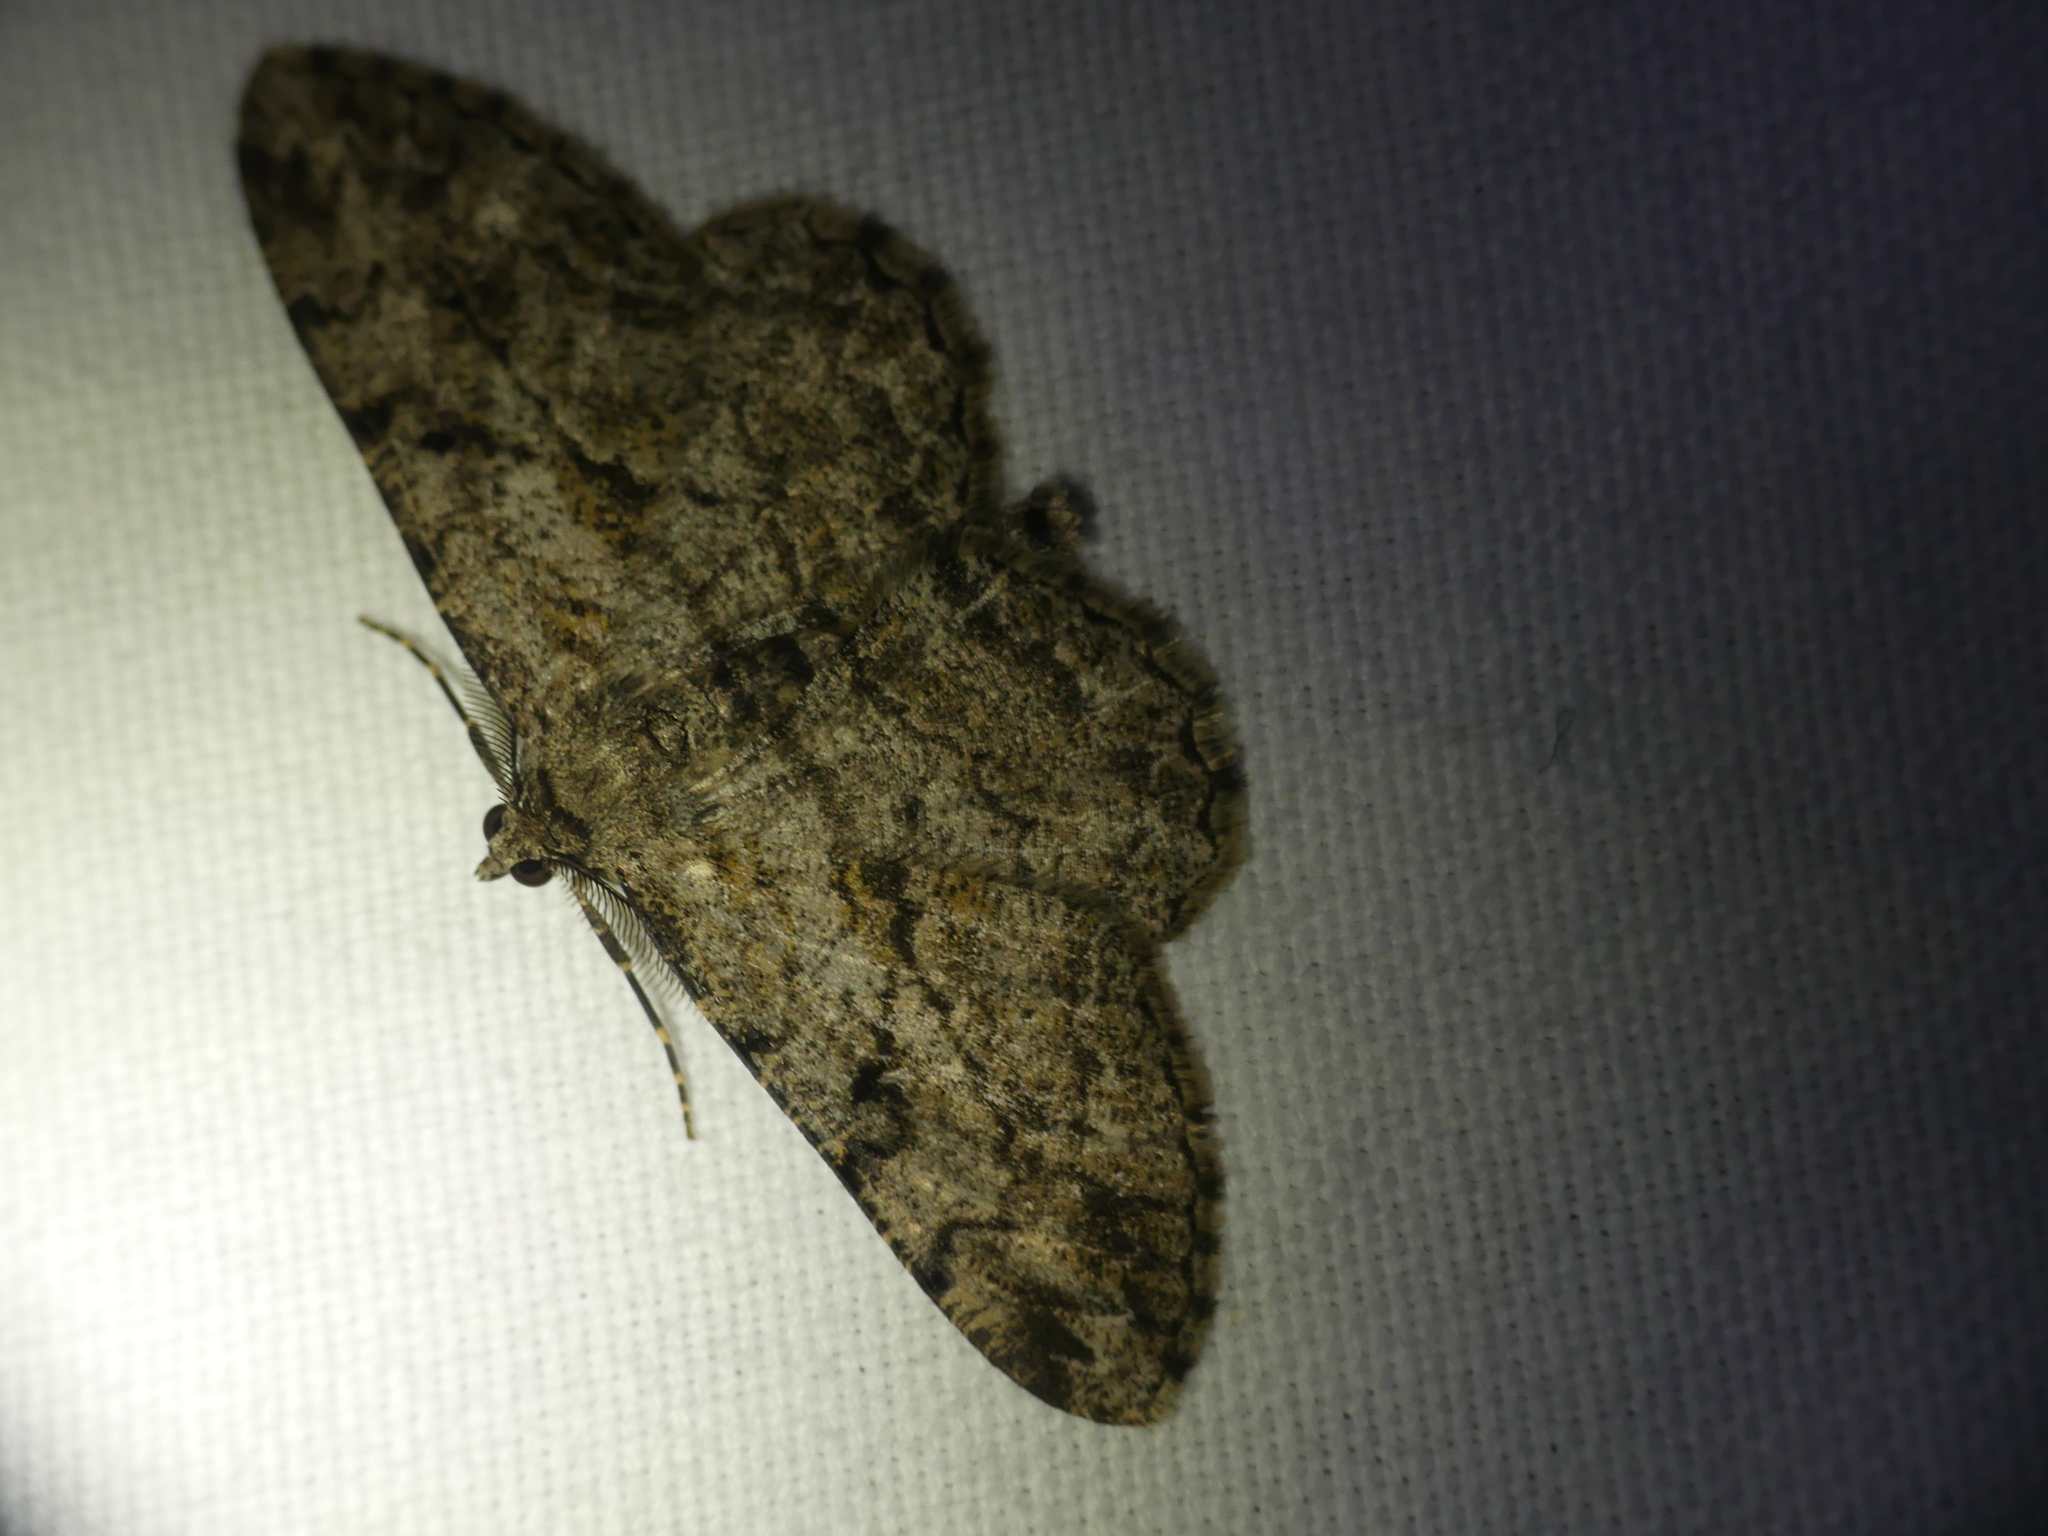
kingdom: Animalia
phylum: Arthropoda
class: Insecta
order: Lepidoptera
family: Geometridae
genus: Peribatodes
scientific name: Peribatodes rhomboidaria
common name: Willow beauty
